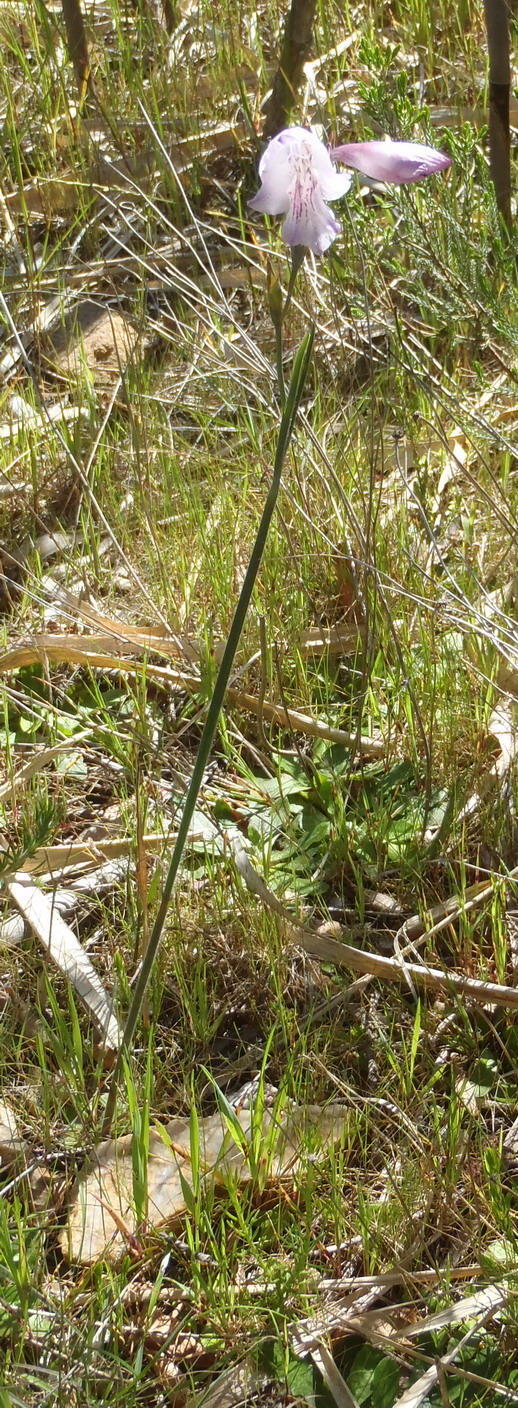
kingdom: Plantae
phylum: Tracheophyta
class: Liliopsida
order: Asparagales
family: Iridaceae
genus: Gladiolus
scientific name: Gladiolus hirsutus
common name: Small pink afrikaner
